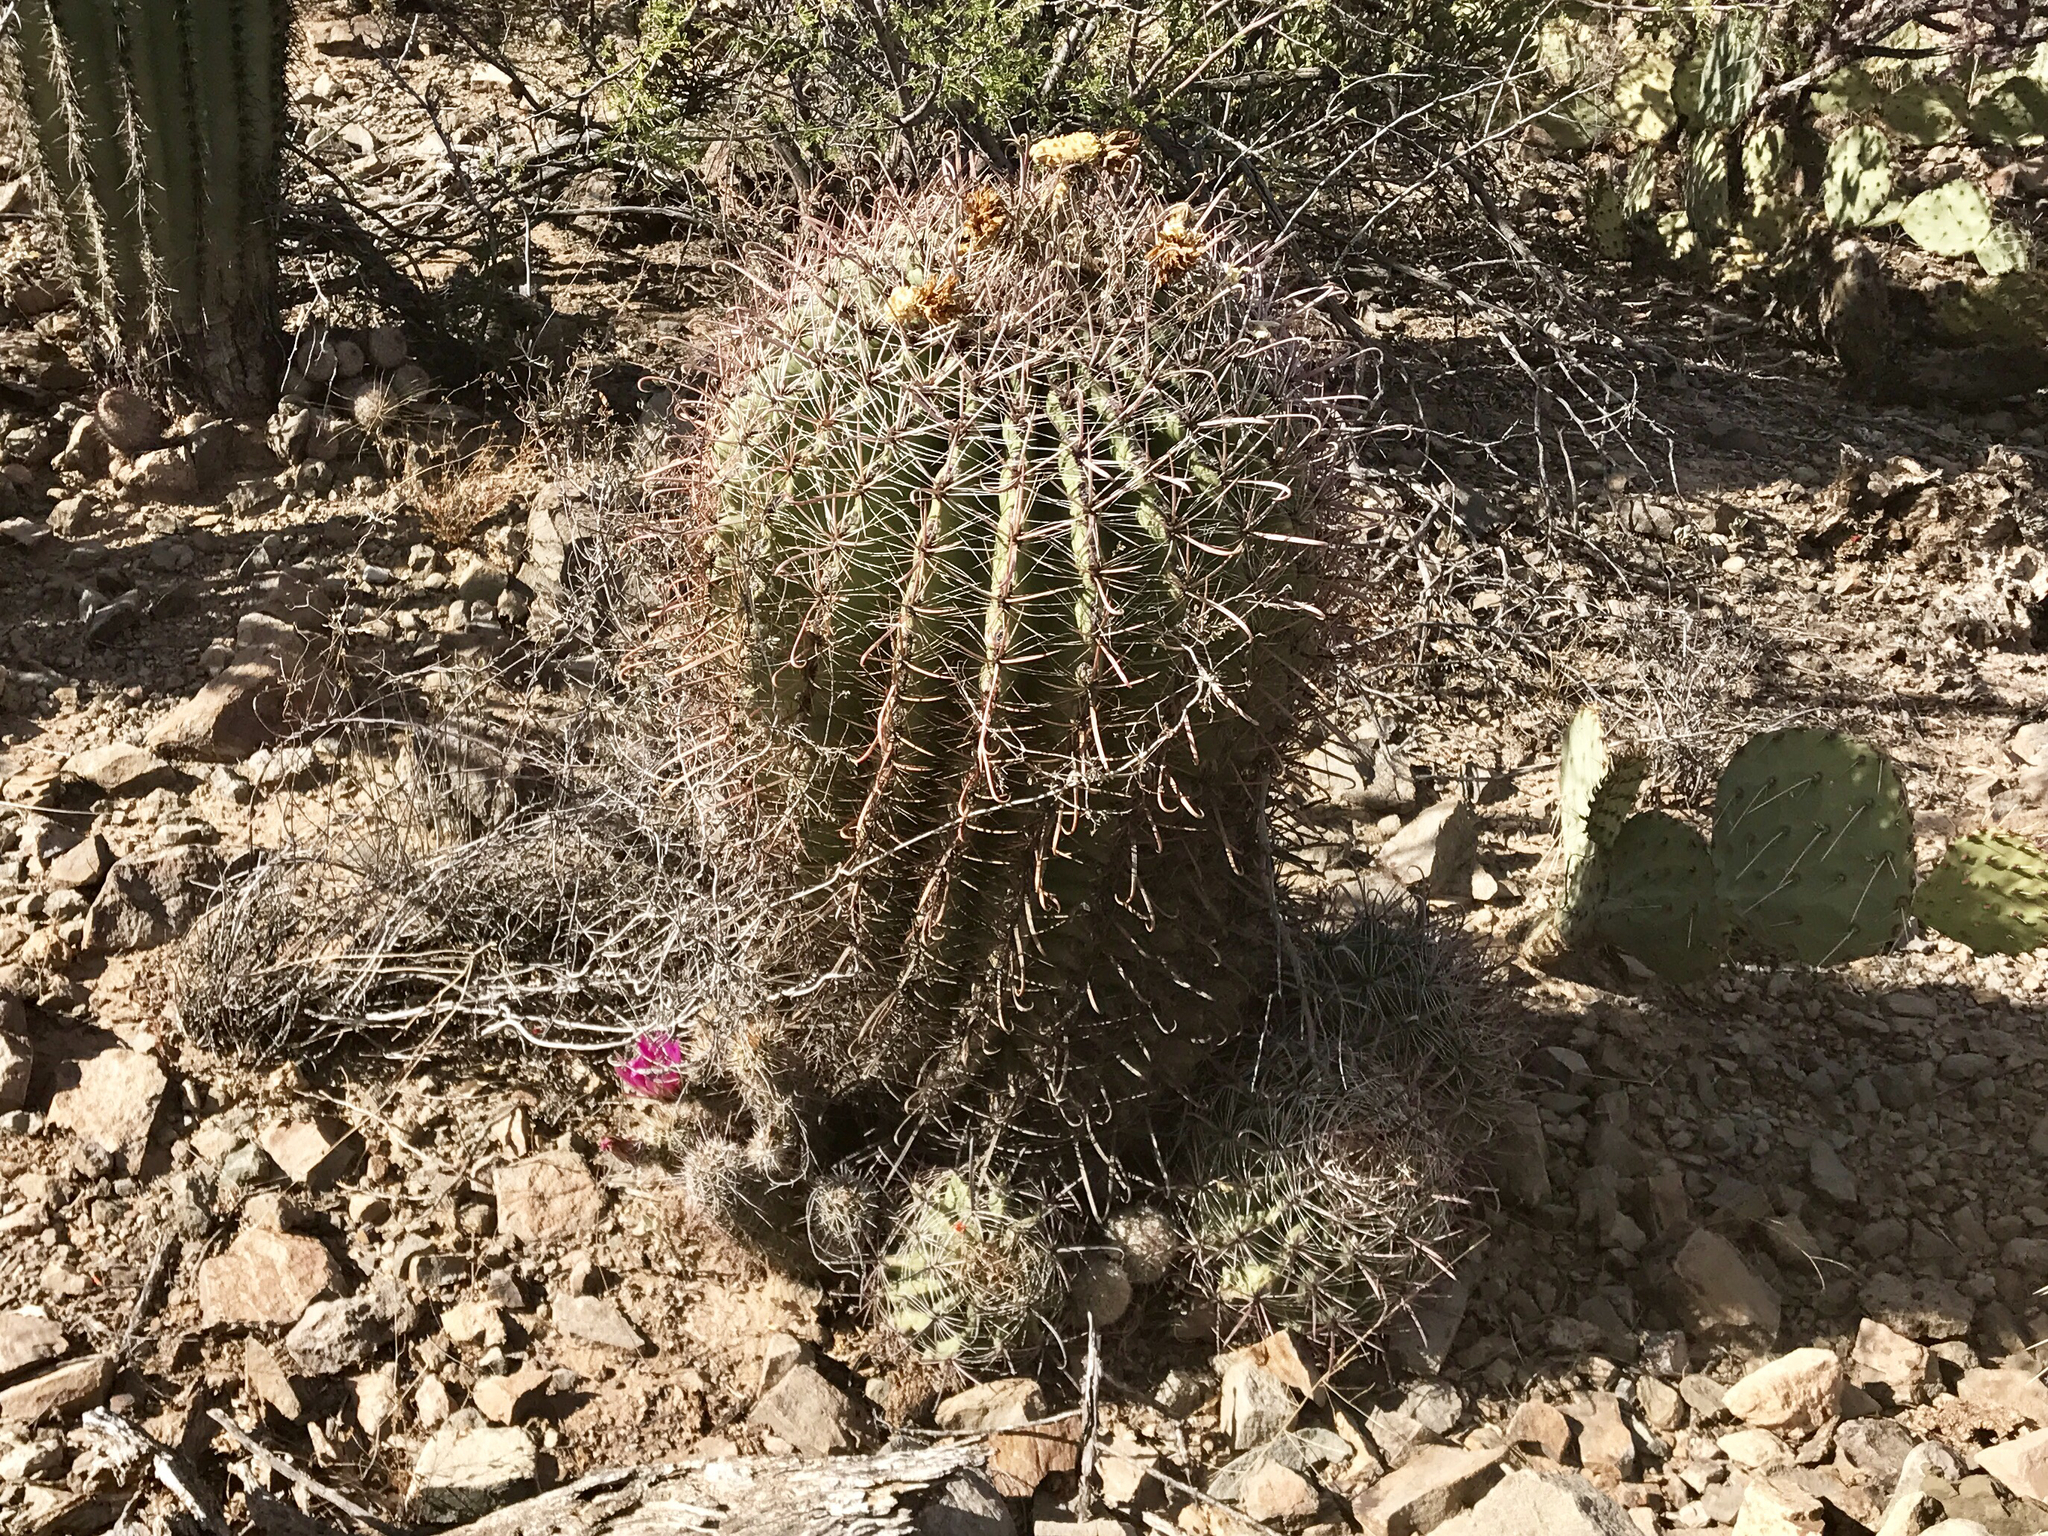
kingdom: Plantae
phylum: Tracheophyta
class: Magnoliopsida
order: Caryophyllales
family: Cactaceae
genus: Ferocactus
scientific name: Ferocactus wislizeni
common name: Candy barrel cactus
